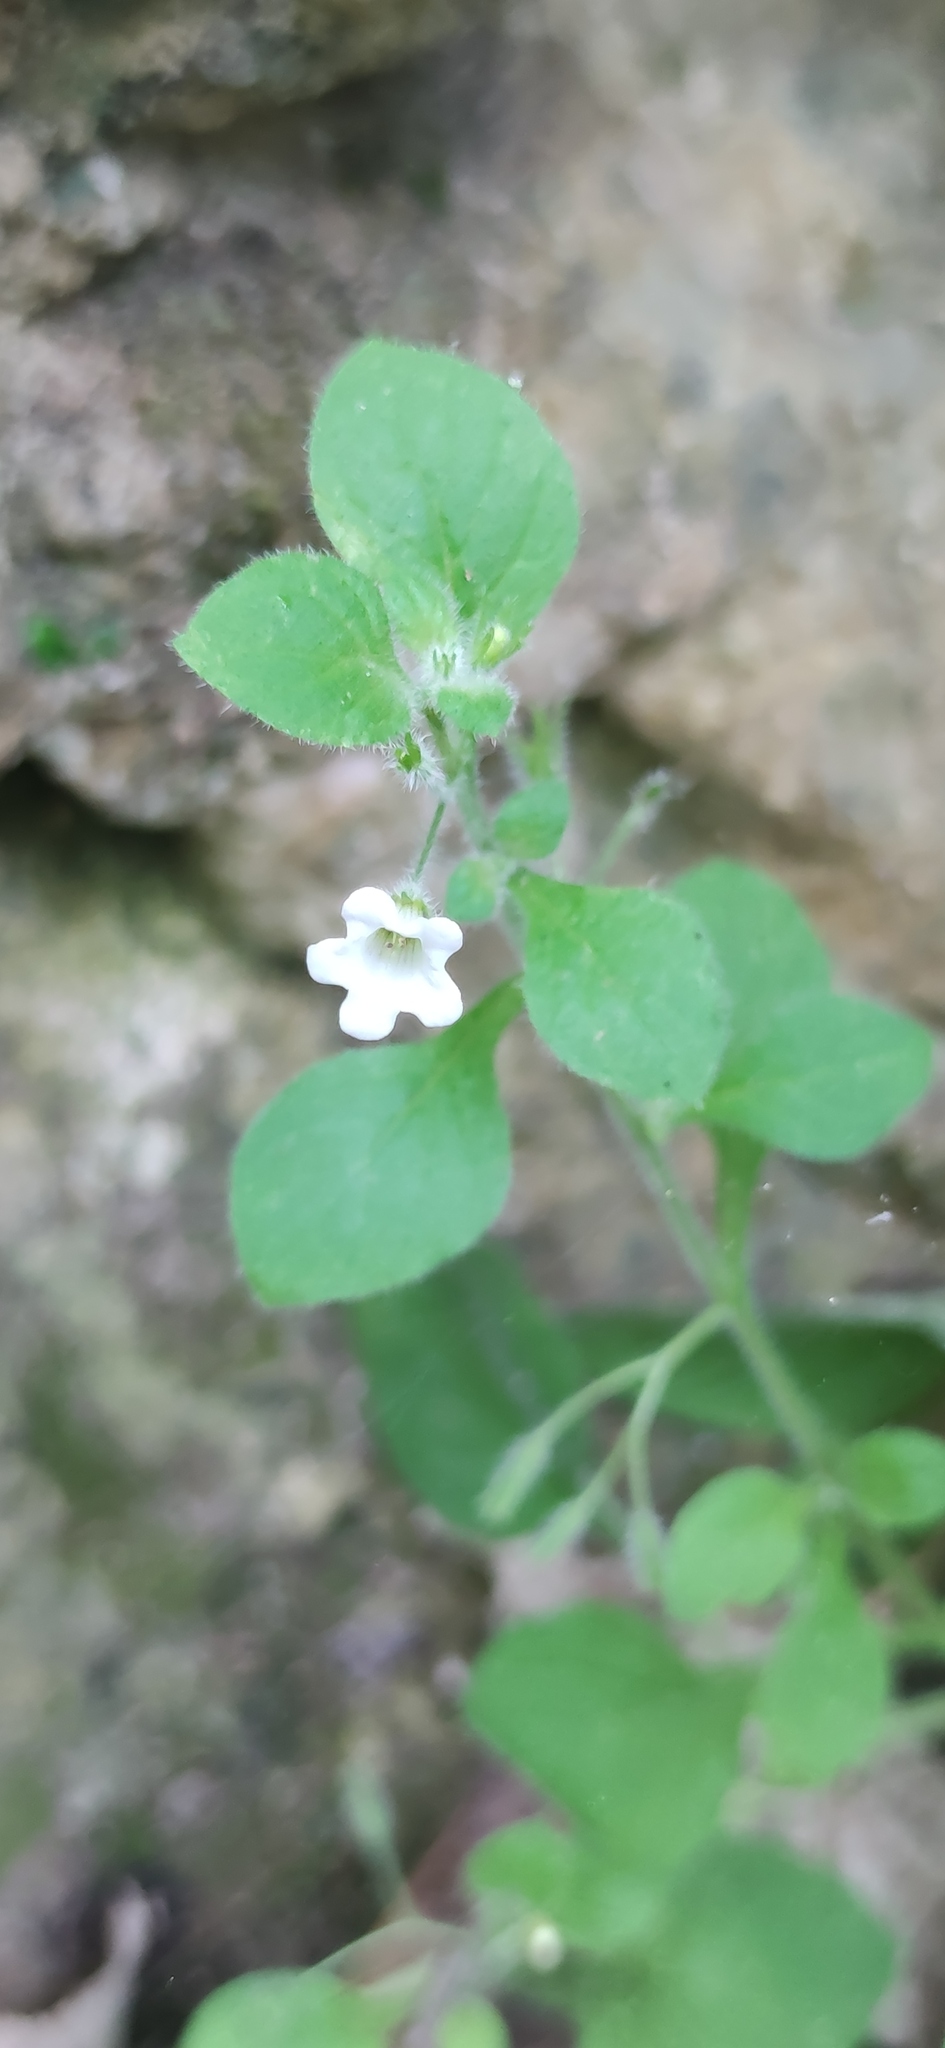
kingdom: Plantae
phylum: Tracheophyta
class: Magnoliopsida
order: Boraginales
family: Namaceae
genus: Nama
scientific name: Nama jamaicensis
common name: Jamaicanweed
